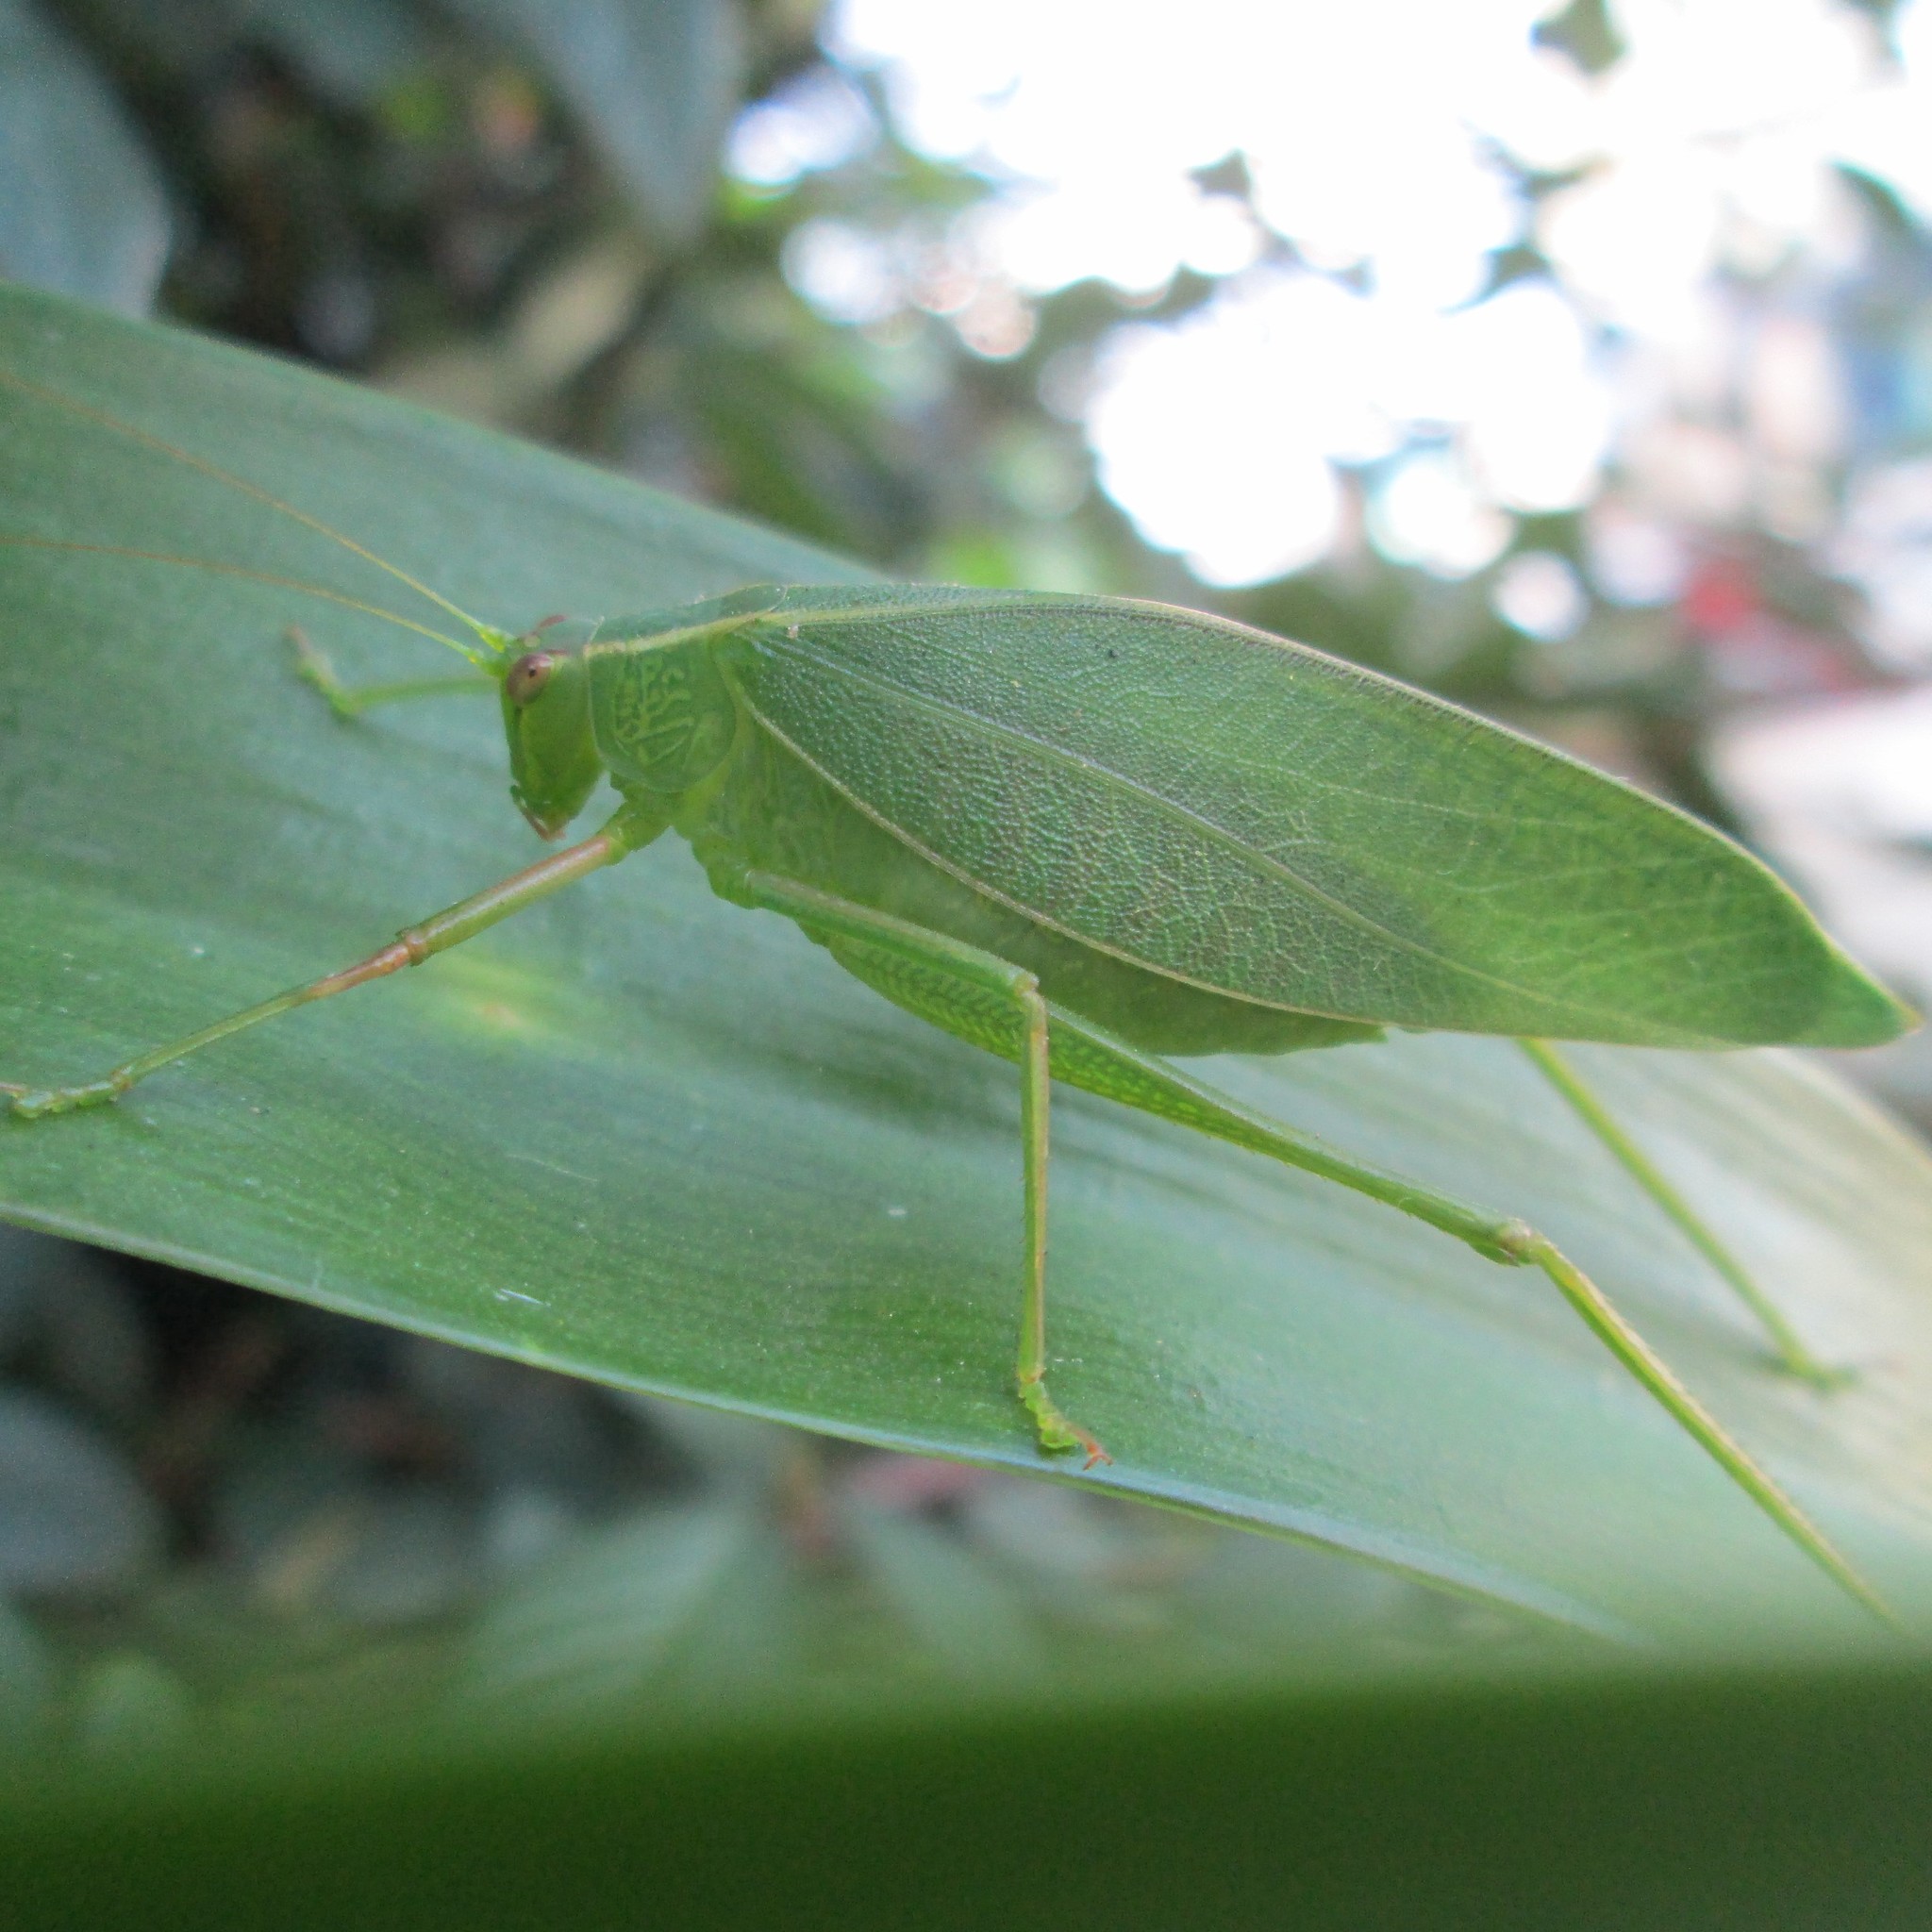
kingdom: Animalia
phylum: Arthropoda
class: Insecta
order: Orthoptera
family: Tettigoniidae
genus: Caedicia
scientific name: Caedicia simplex
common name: Common garden katydid
